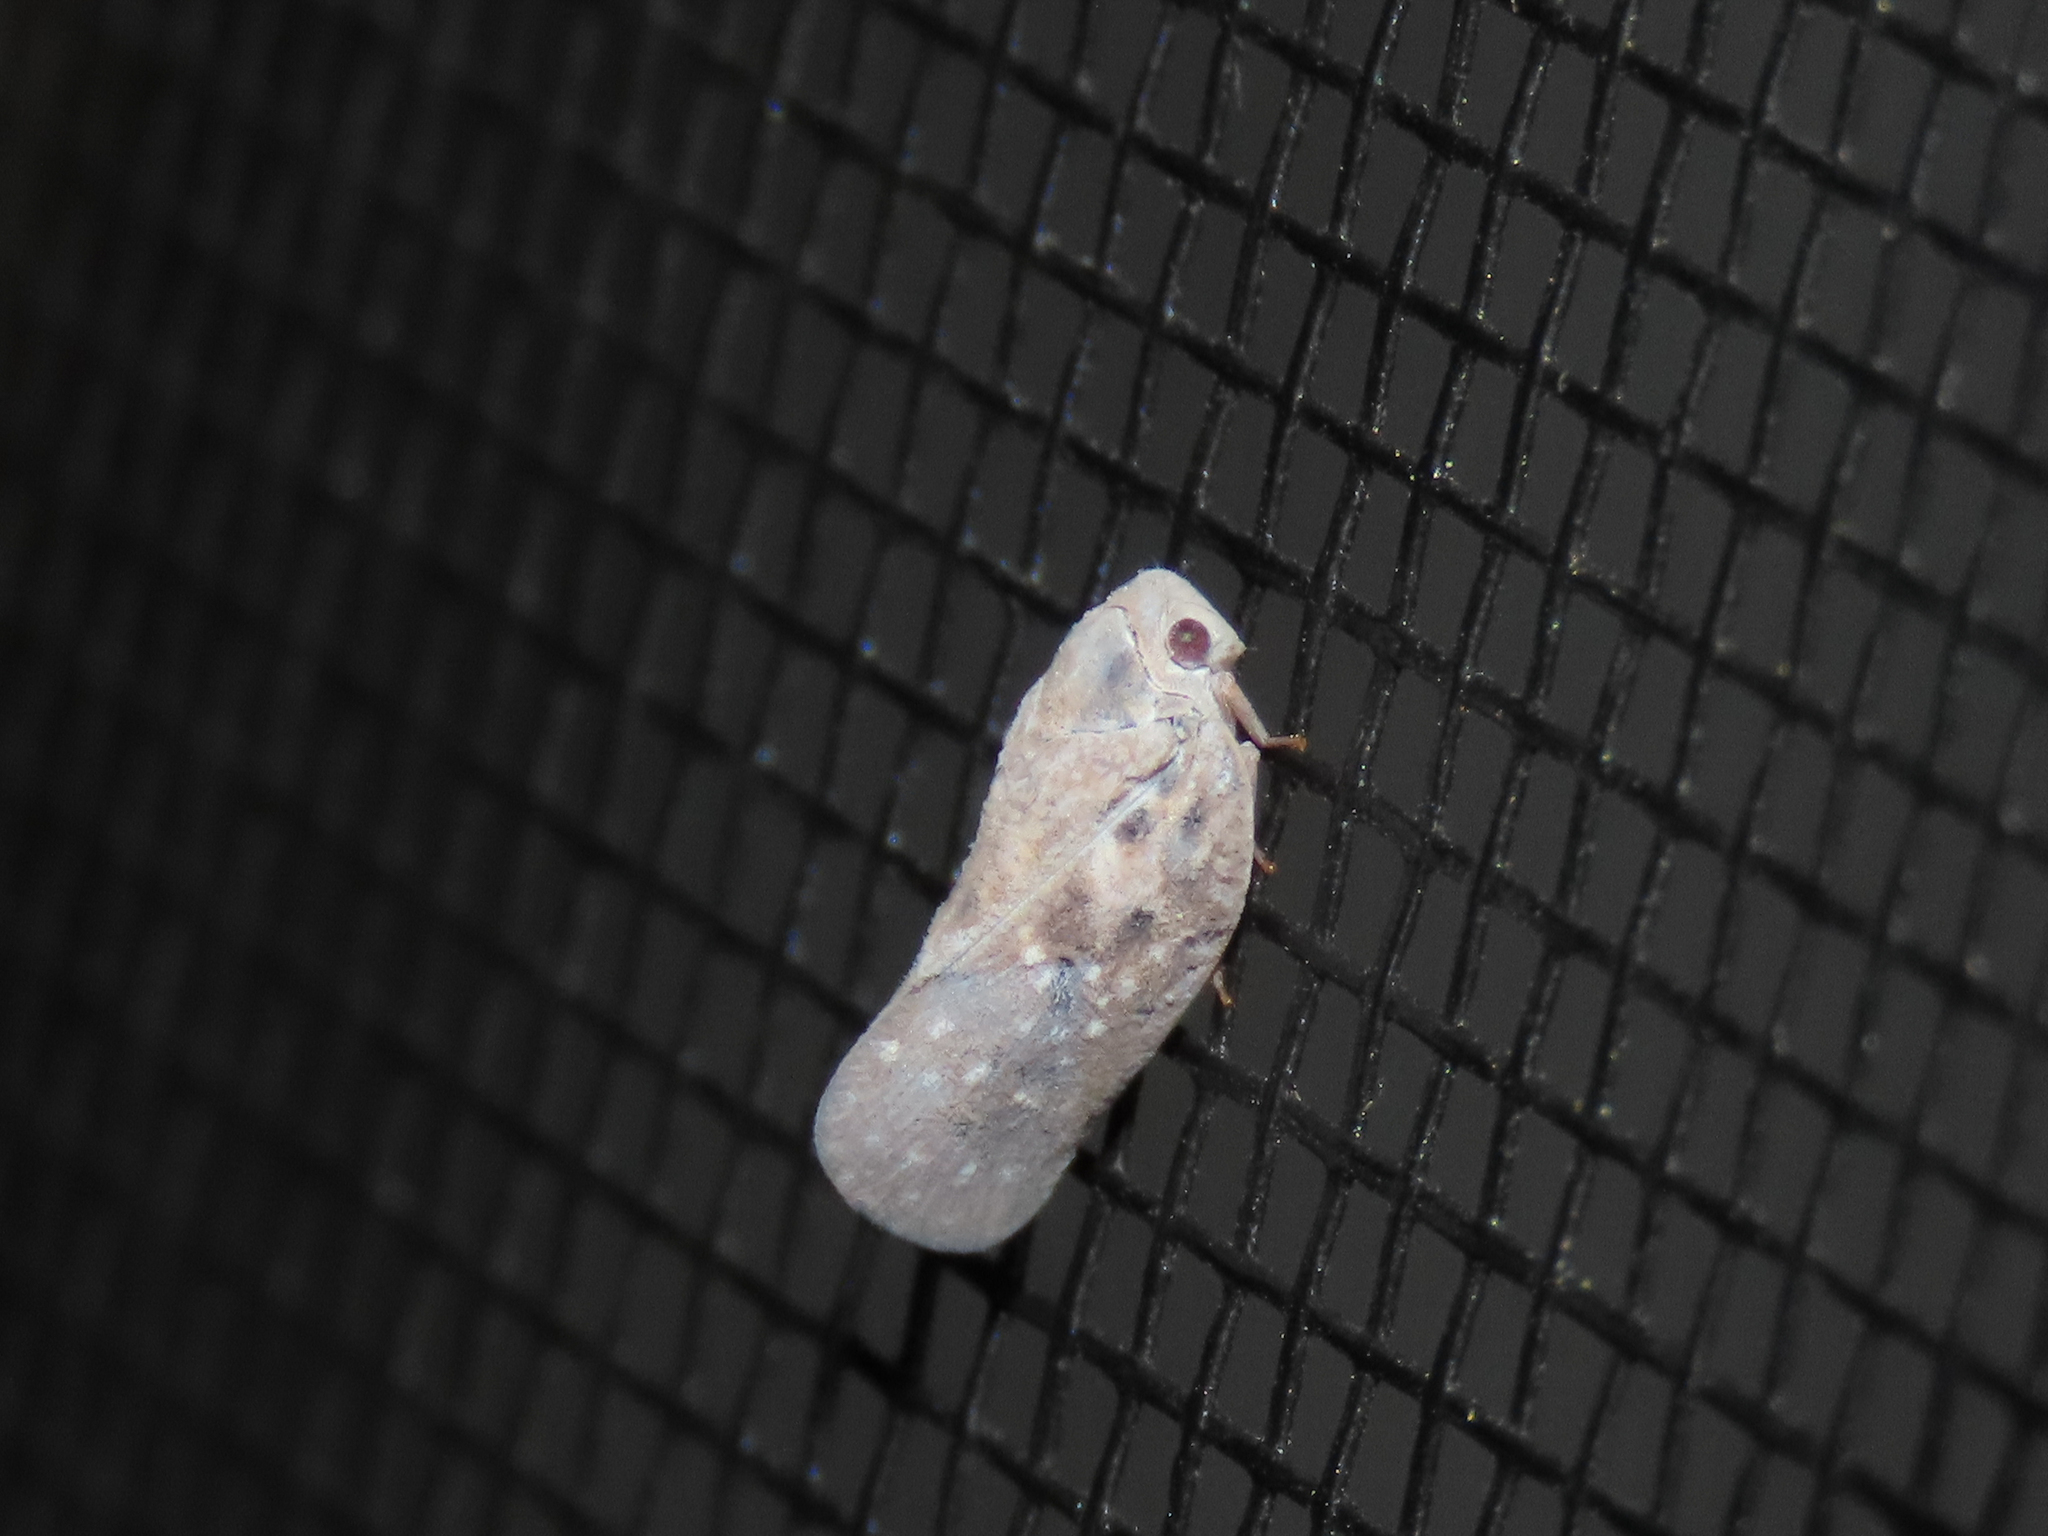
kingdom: Animalia
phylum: Arthropoda
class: Insecta
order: Hemiptera
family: Flatidae
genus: Metcalfa
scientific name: Metcalfa pruinosa
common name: Citrus flatid planthopper
